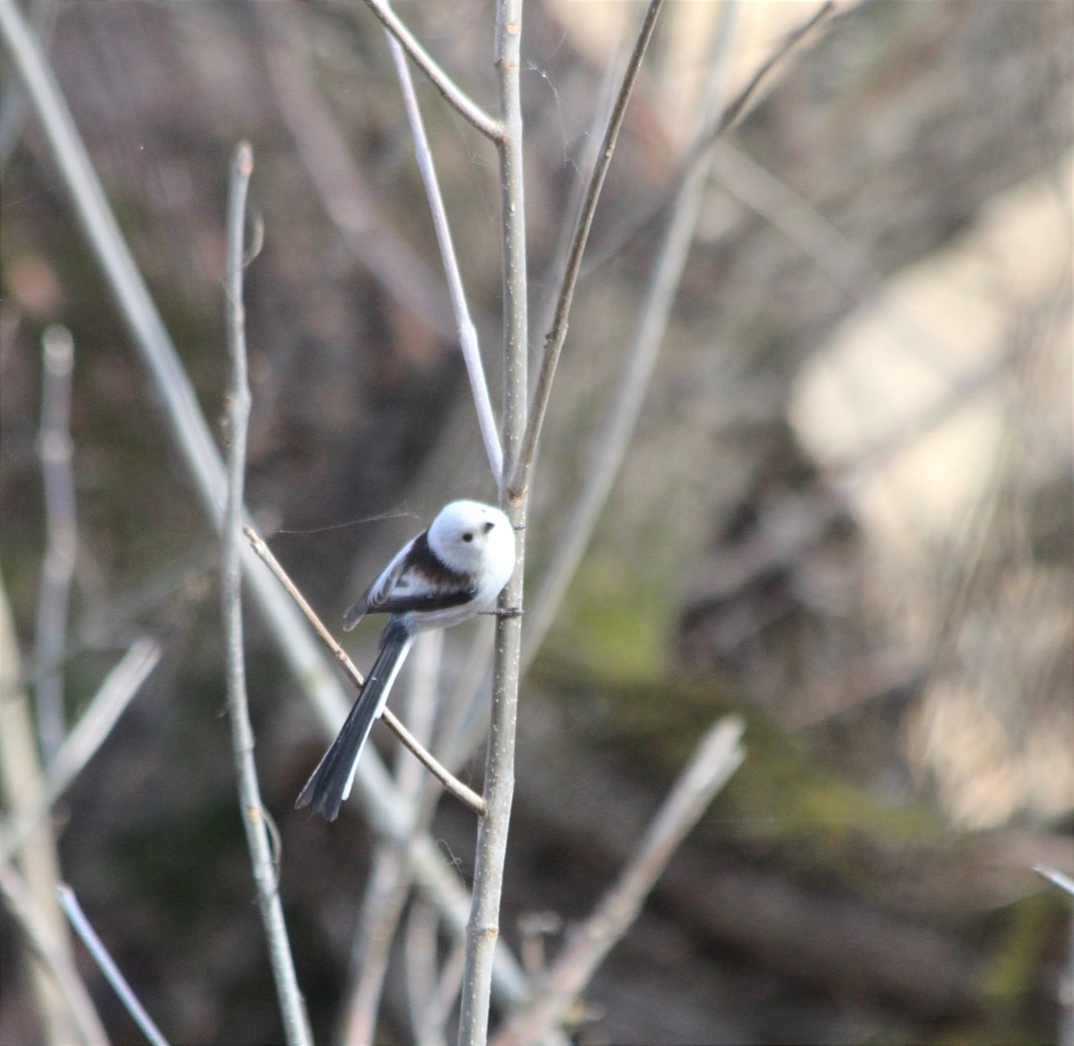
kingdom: Animalia
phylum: Chordata
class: Aves
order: Passeriformes
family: Aegithalidae
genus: Aegithalos
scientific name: Aegithalos caudatus
